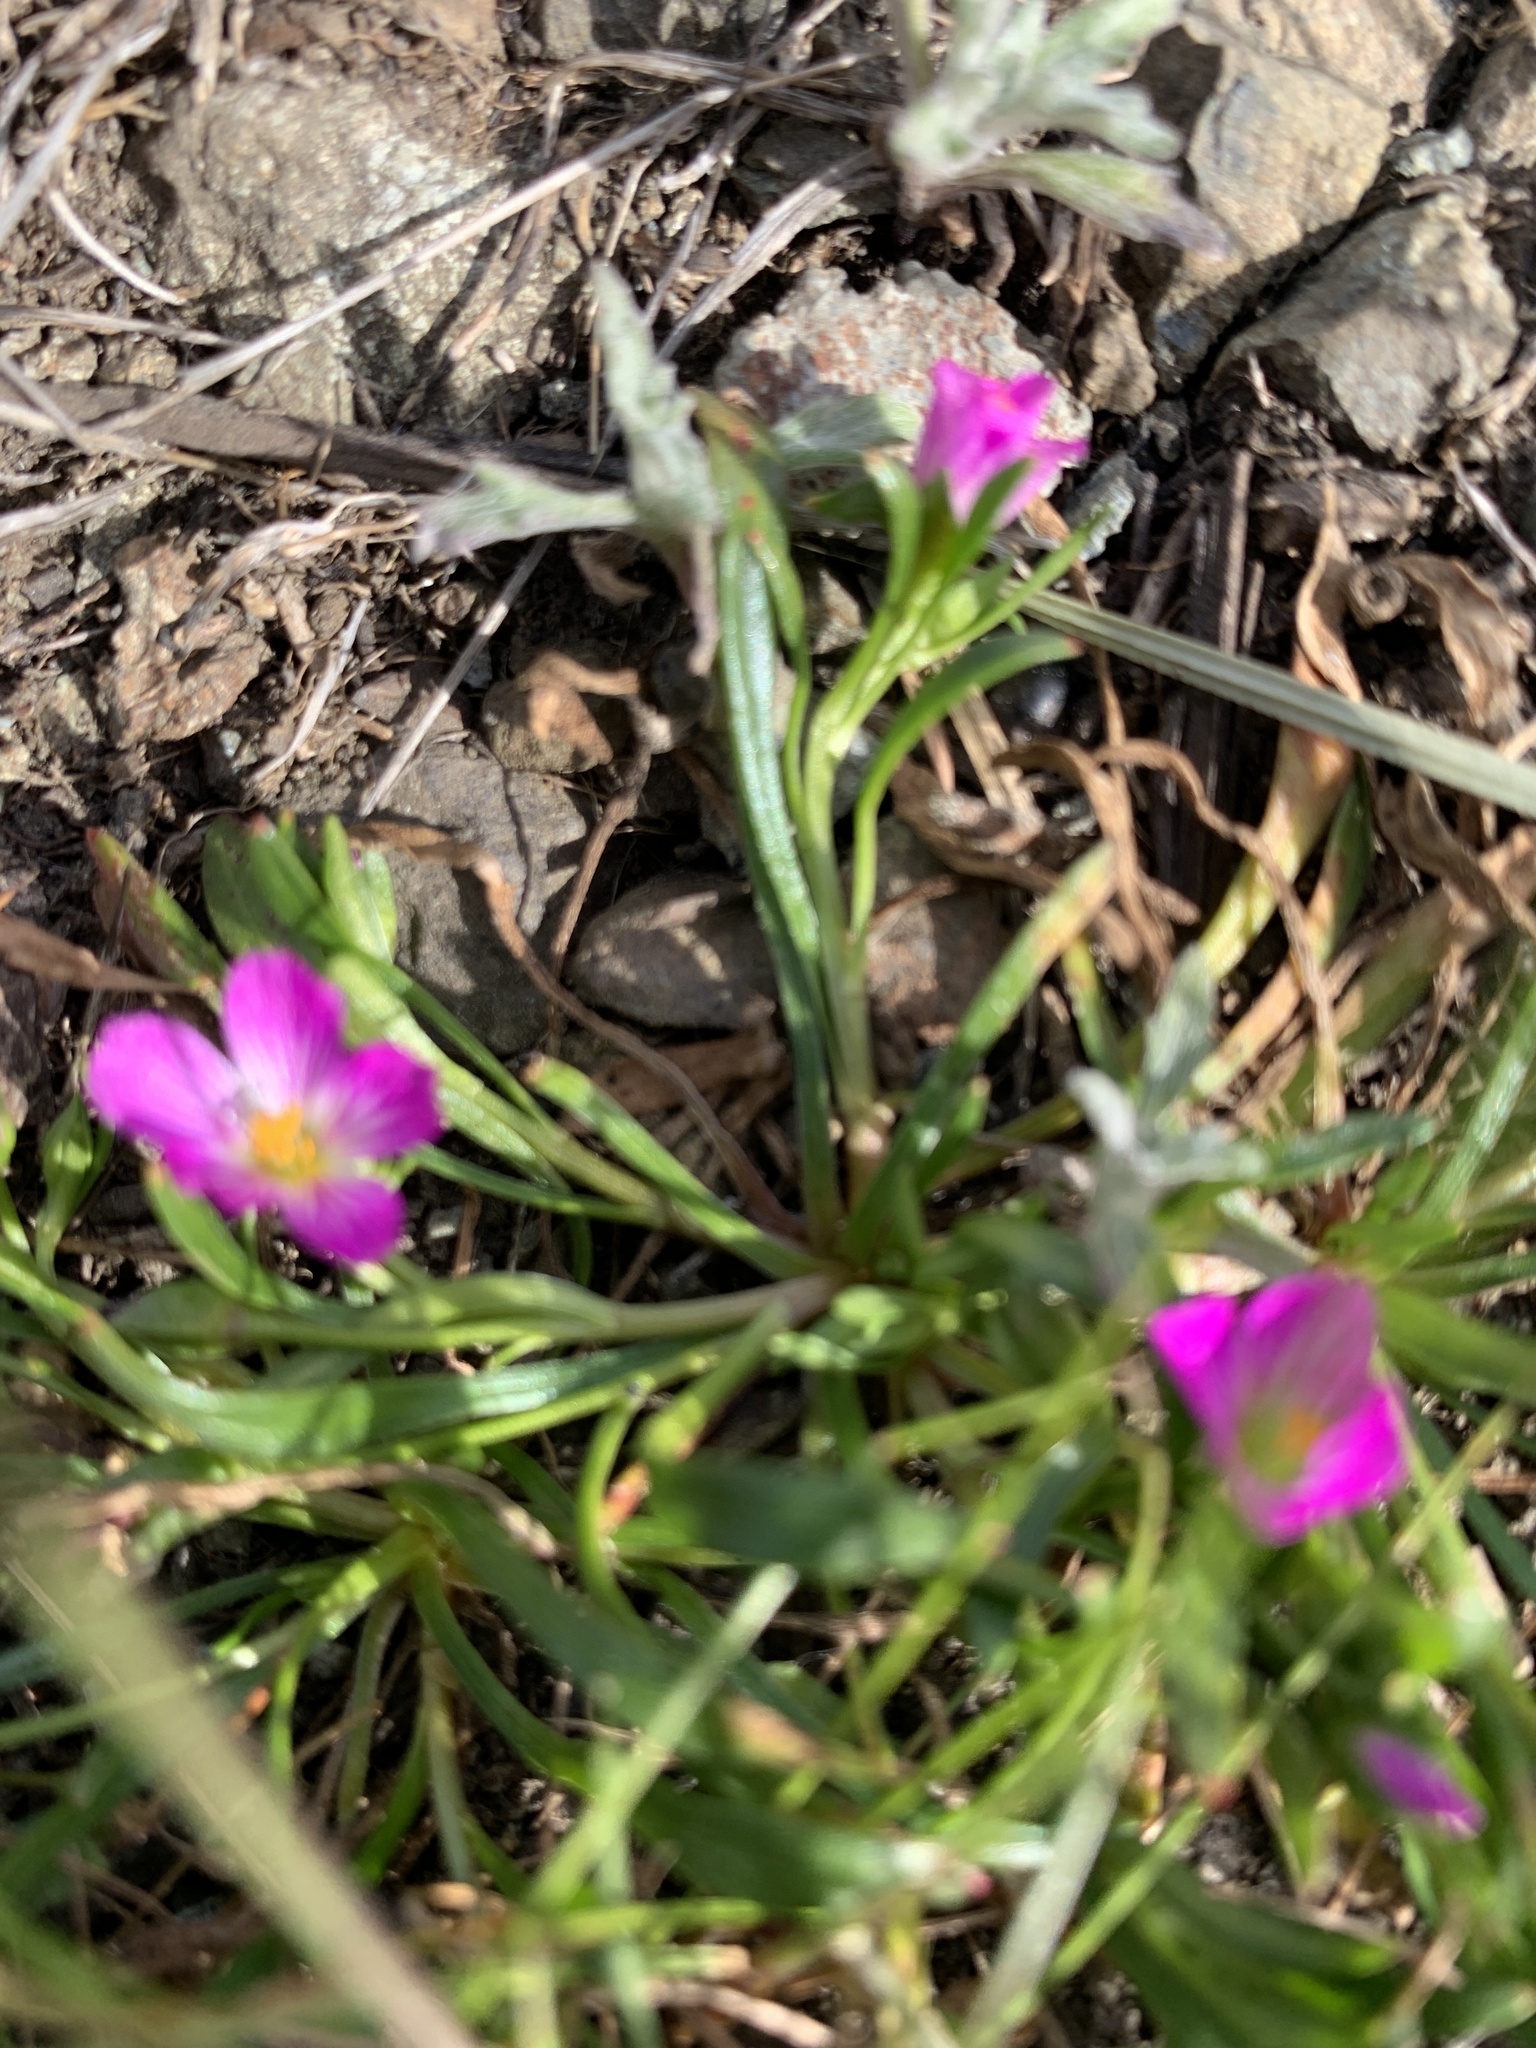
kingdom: Plantae
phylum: Tracheophyta
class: Magnoliopsida
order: Caryophyllales
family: Montiaceae
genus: Calandrinia
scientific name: Calandrinia menziesii
